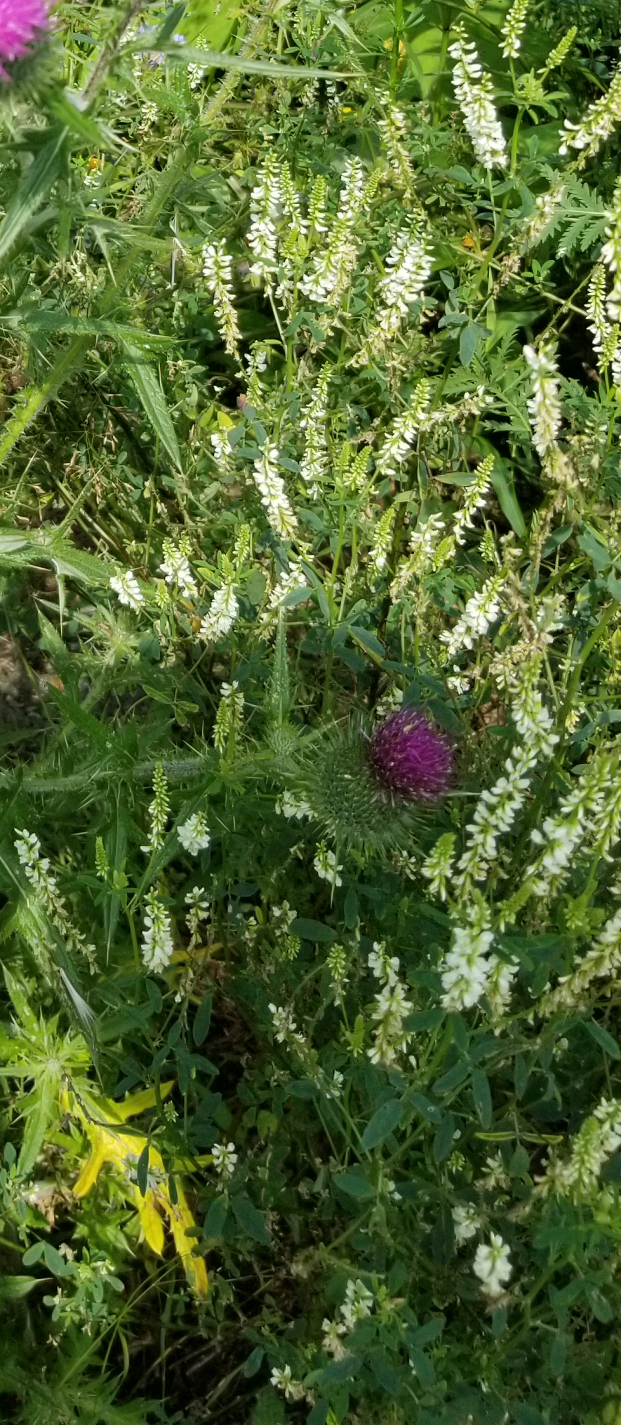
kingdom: Plantae
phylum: Tracheophyta
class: Magnoliopsida
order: Fabales
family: Fabaceae
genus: Melilotus
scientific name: Melilotus albus
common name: White melilot
